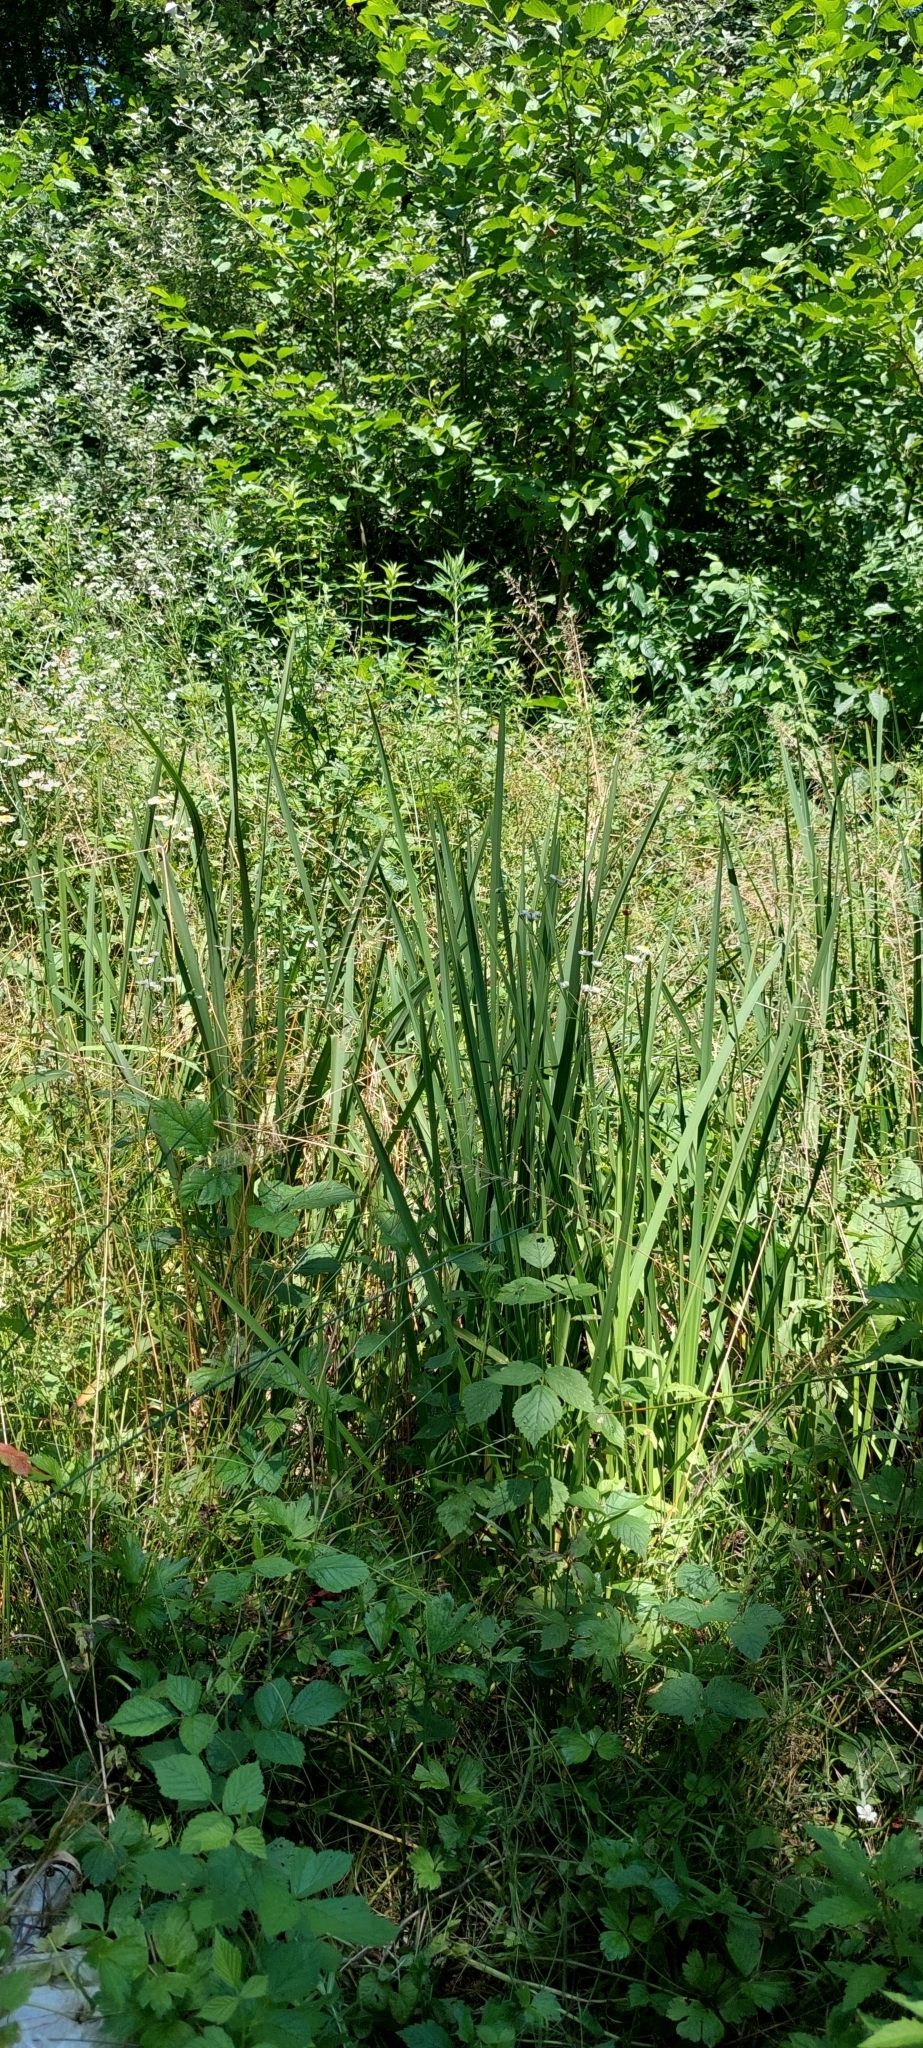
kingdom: Plantae
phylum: Tracheophyta
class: Liliopsida
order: Poales
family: Typhaceae
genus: Sparganium
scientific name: Sparganium erectum
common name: Branched bur-reed
